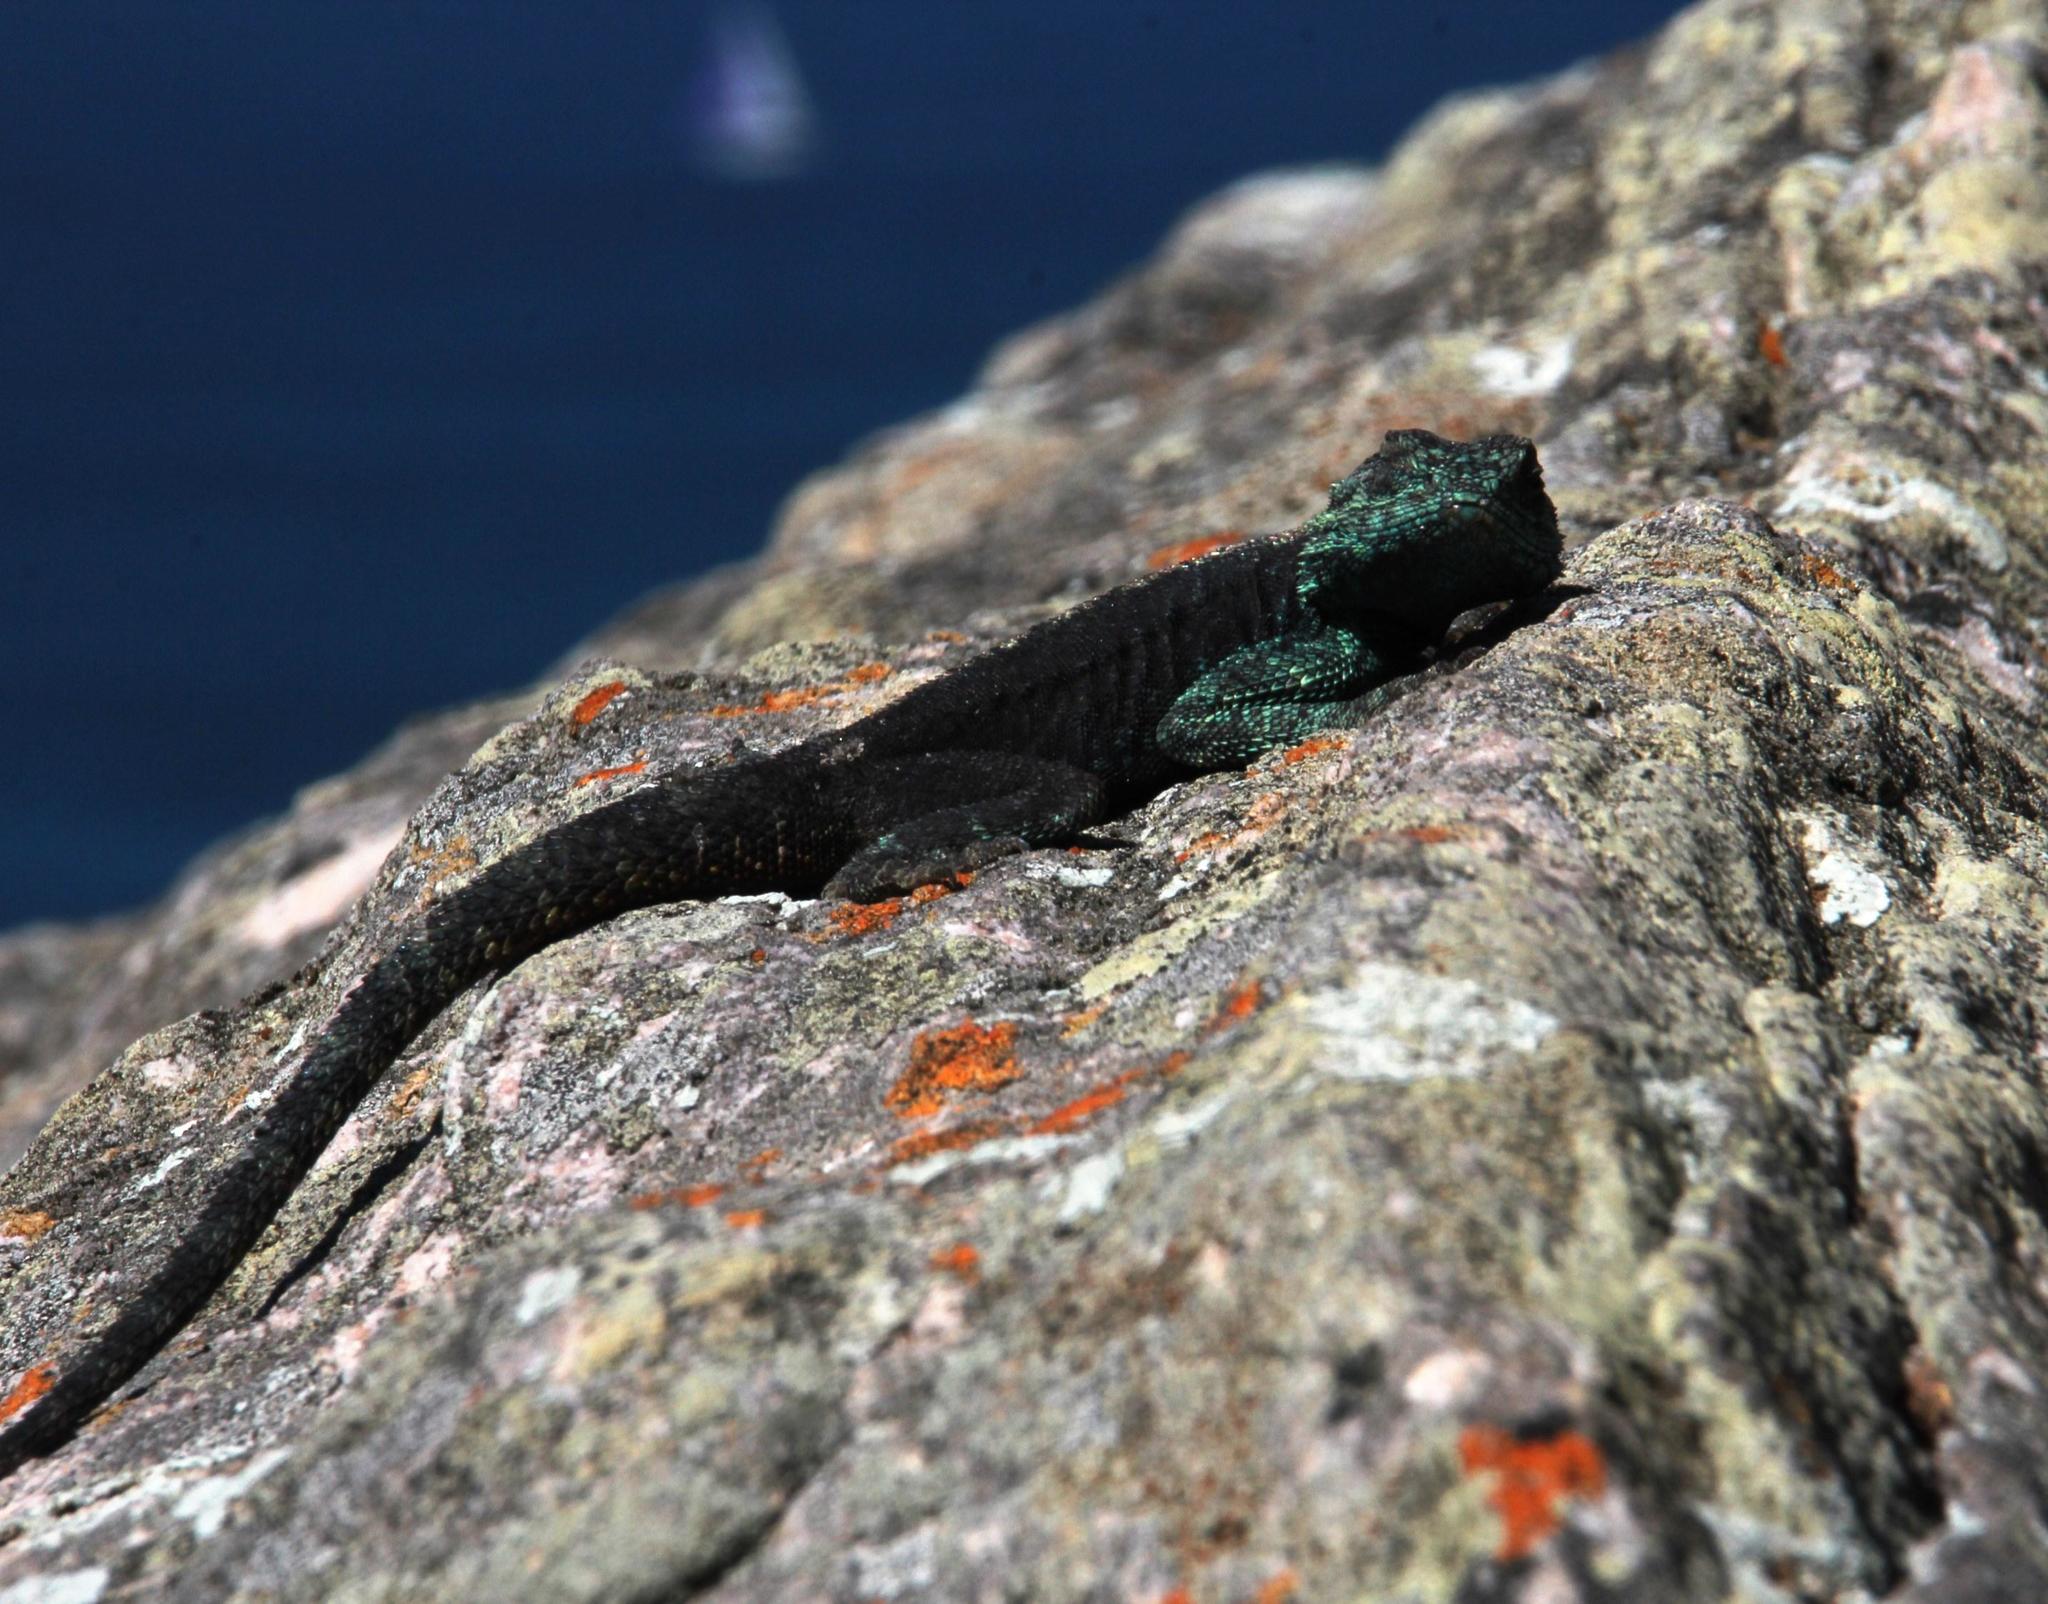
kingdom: Animalia
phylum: Chordata
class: Squamata
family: Agamidae
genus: Agama
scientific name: Agama atra
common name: Southern african rock agama
